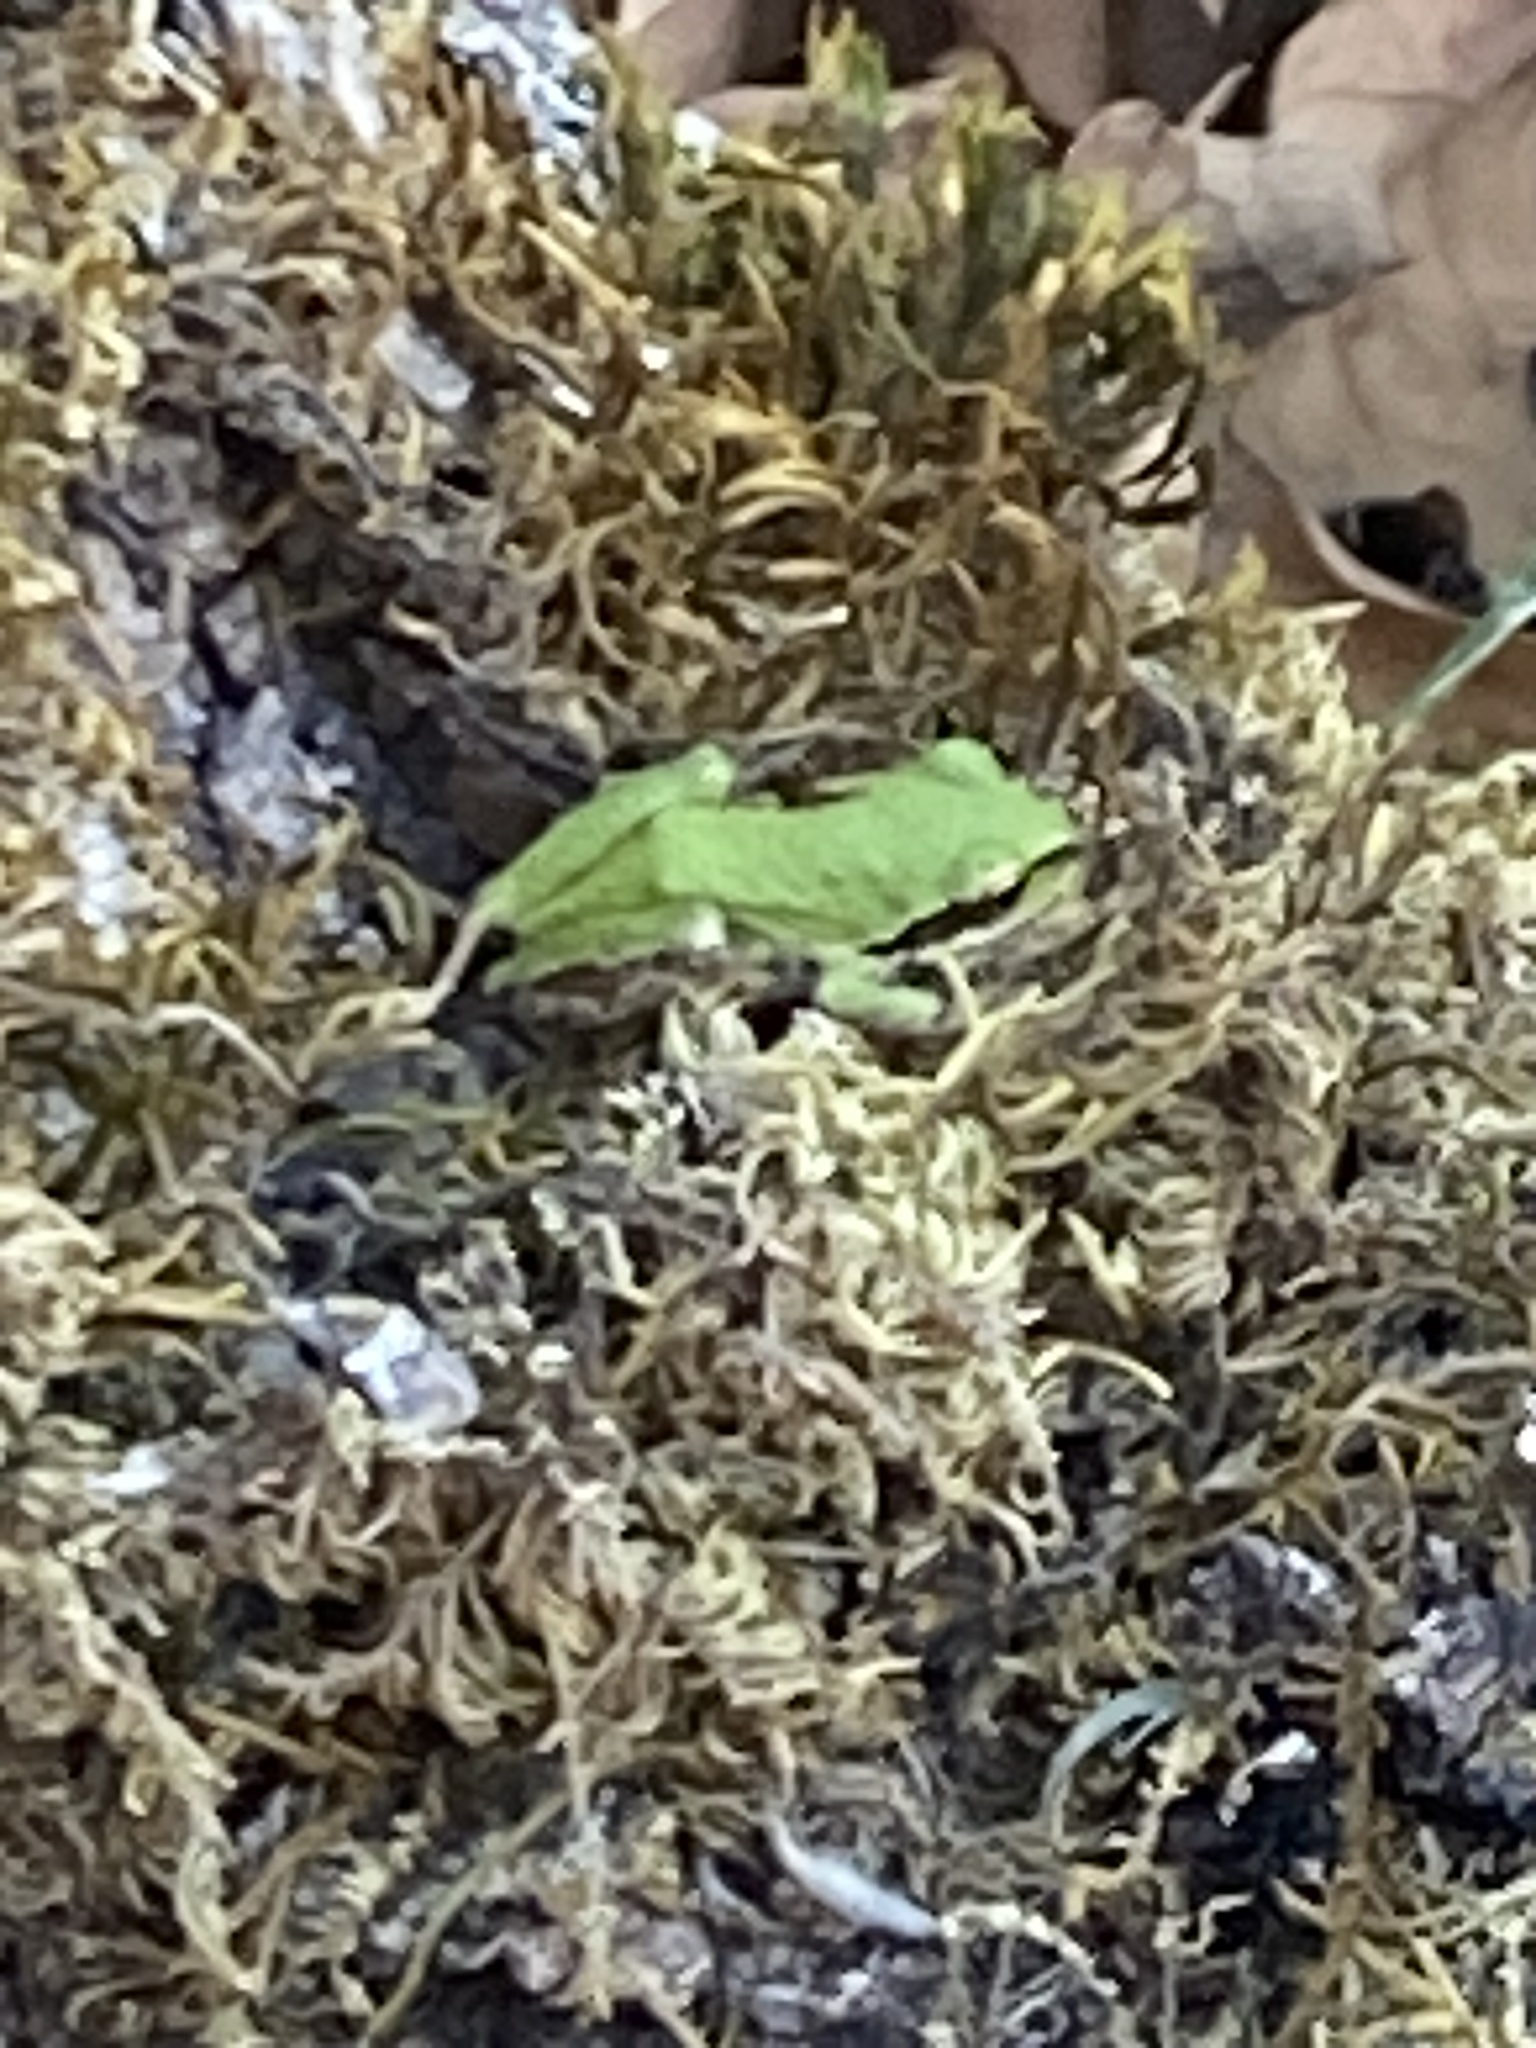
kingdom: Animalia
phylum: Chordata
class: Amphibia
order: Anura
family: Hylidae
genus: Pseudacris
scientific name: Pseudacris regilla
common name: Pacific chorus frog
